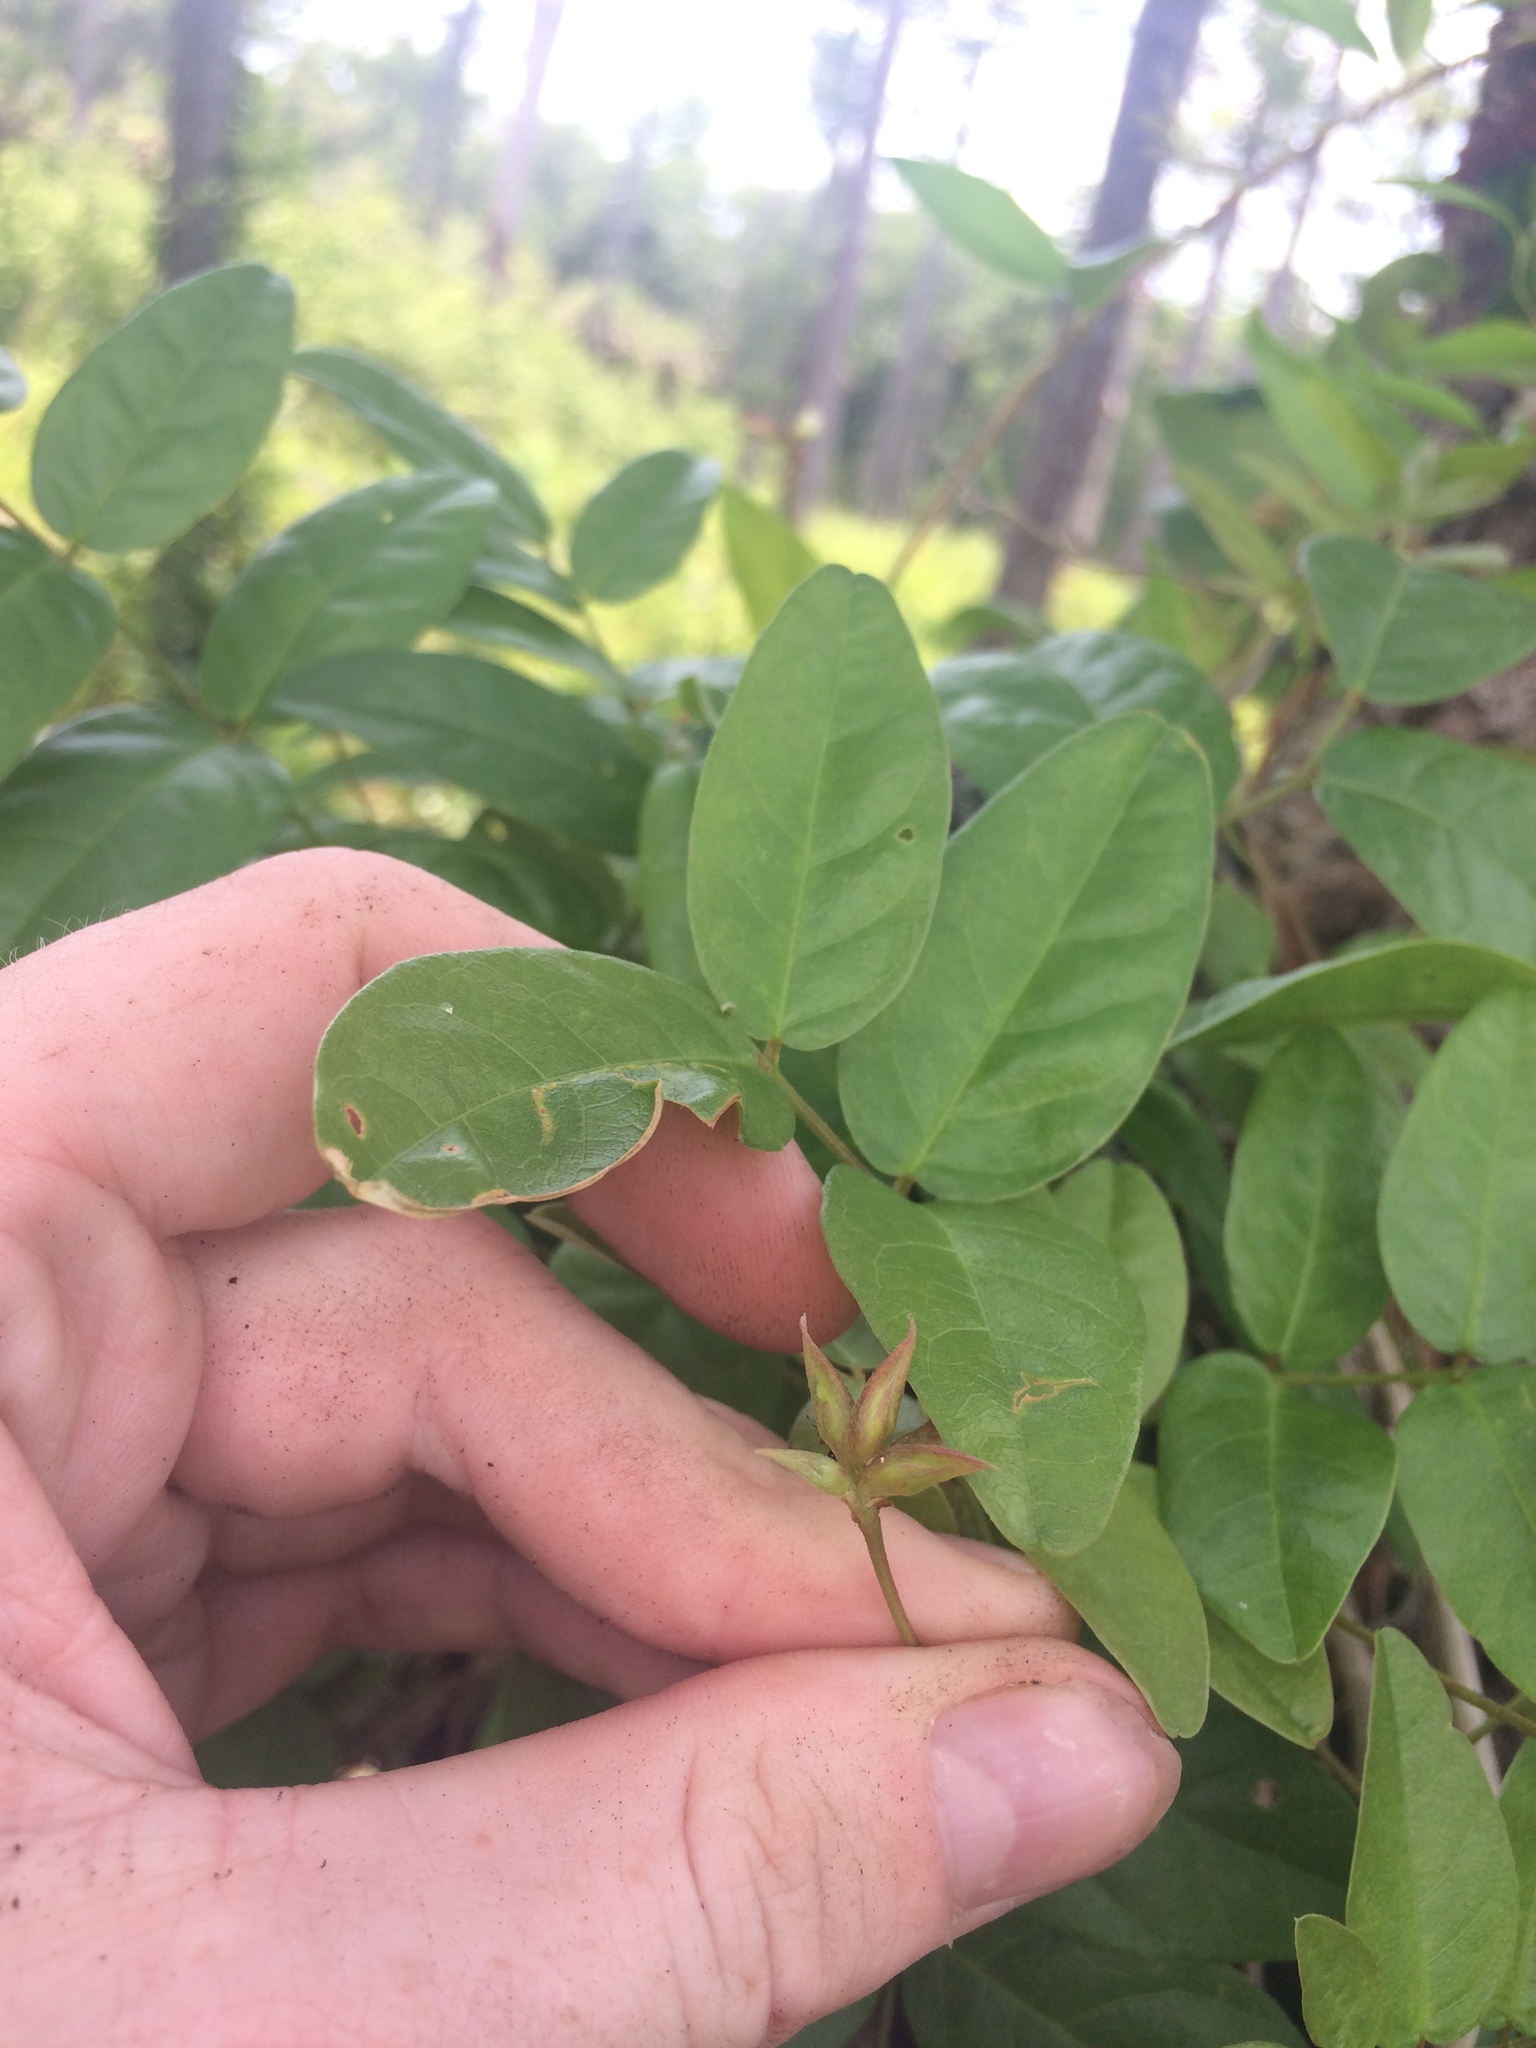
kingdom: Plantae
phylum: Tracheophyta
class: Magnoliopsida
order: Fabales
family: Fabaceae
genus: Galactia
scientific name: Galactia elliottii
